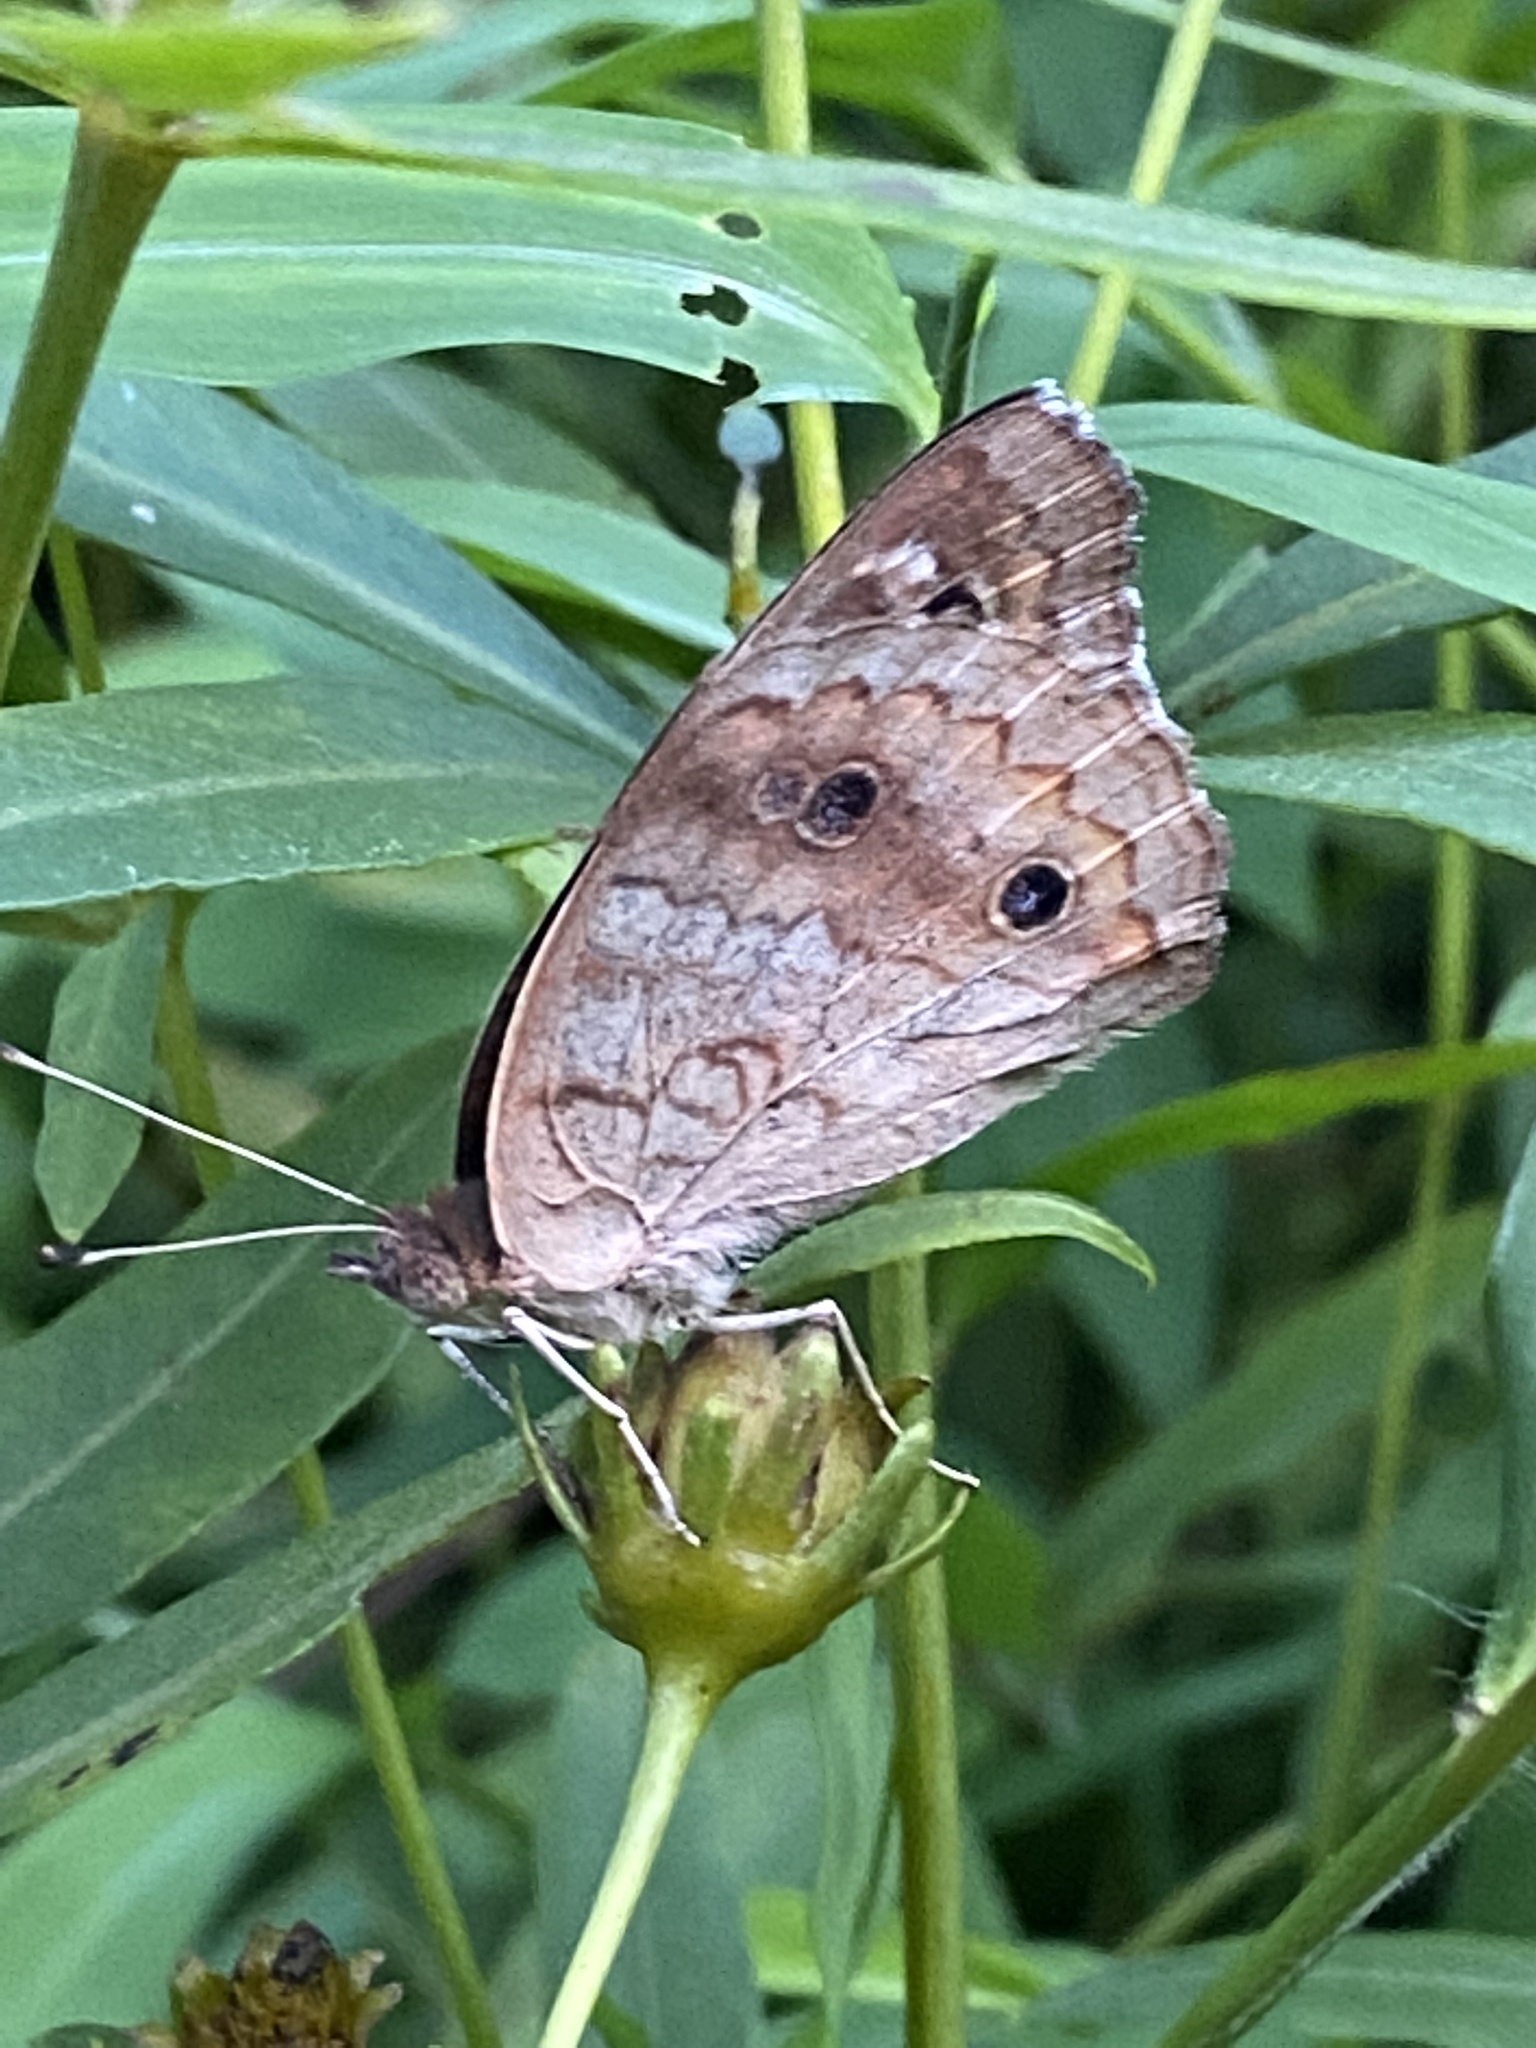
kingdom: Animalia
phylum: Arthropoda
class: Insecta
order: Lepidoptera
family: Nymphalidae
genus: Junonia
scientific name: Junonia coenia
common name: Common buckeye
